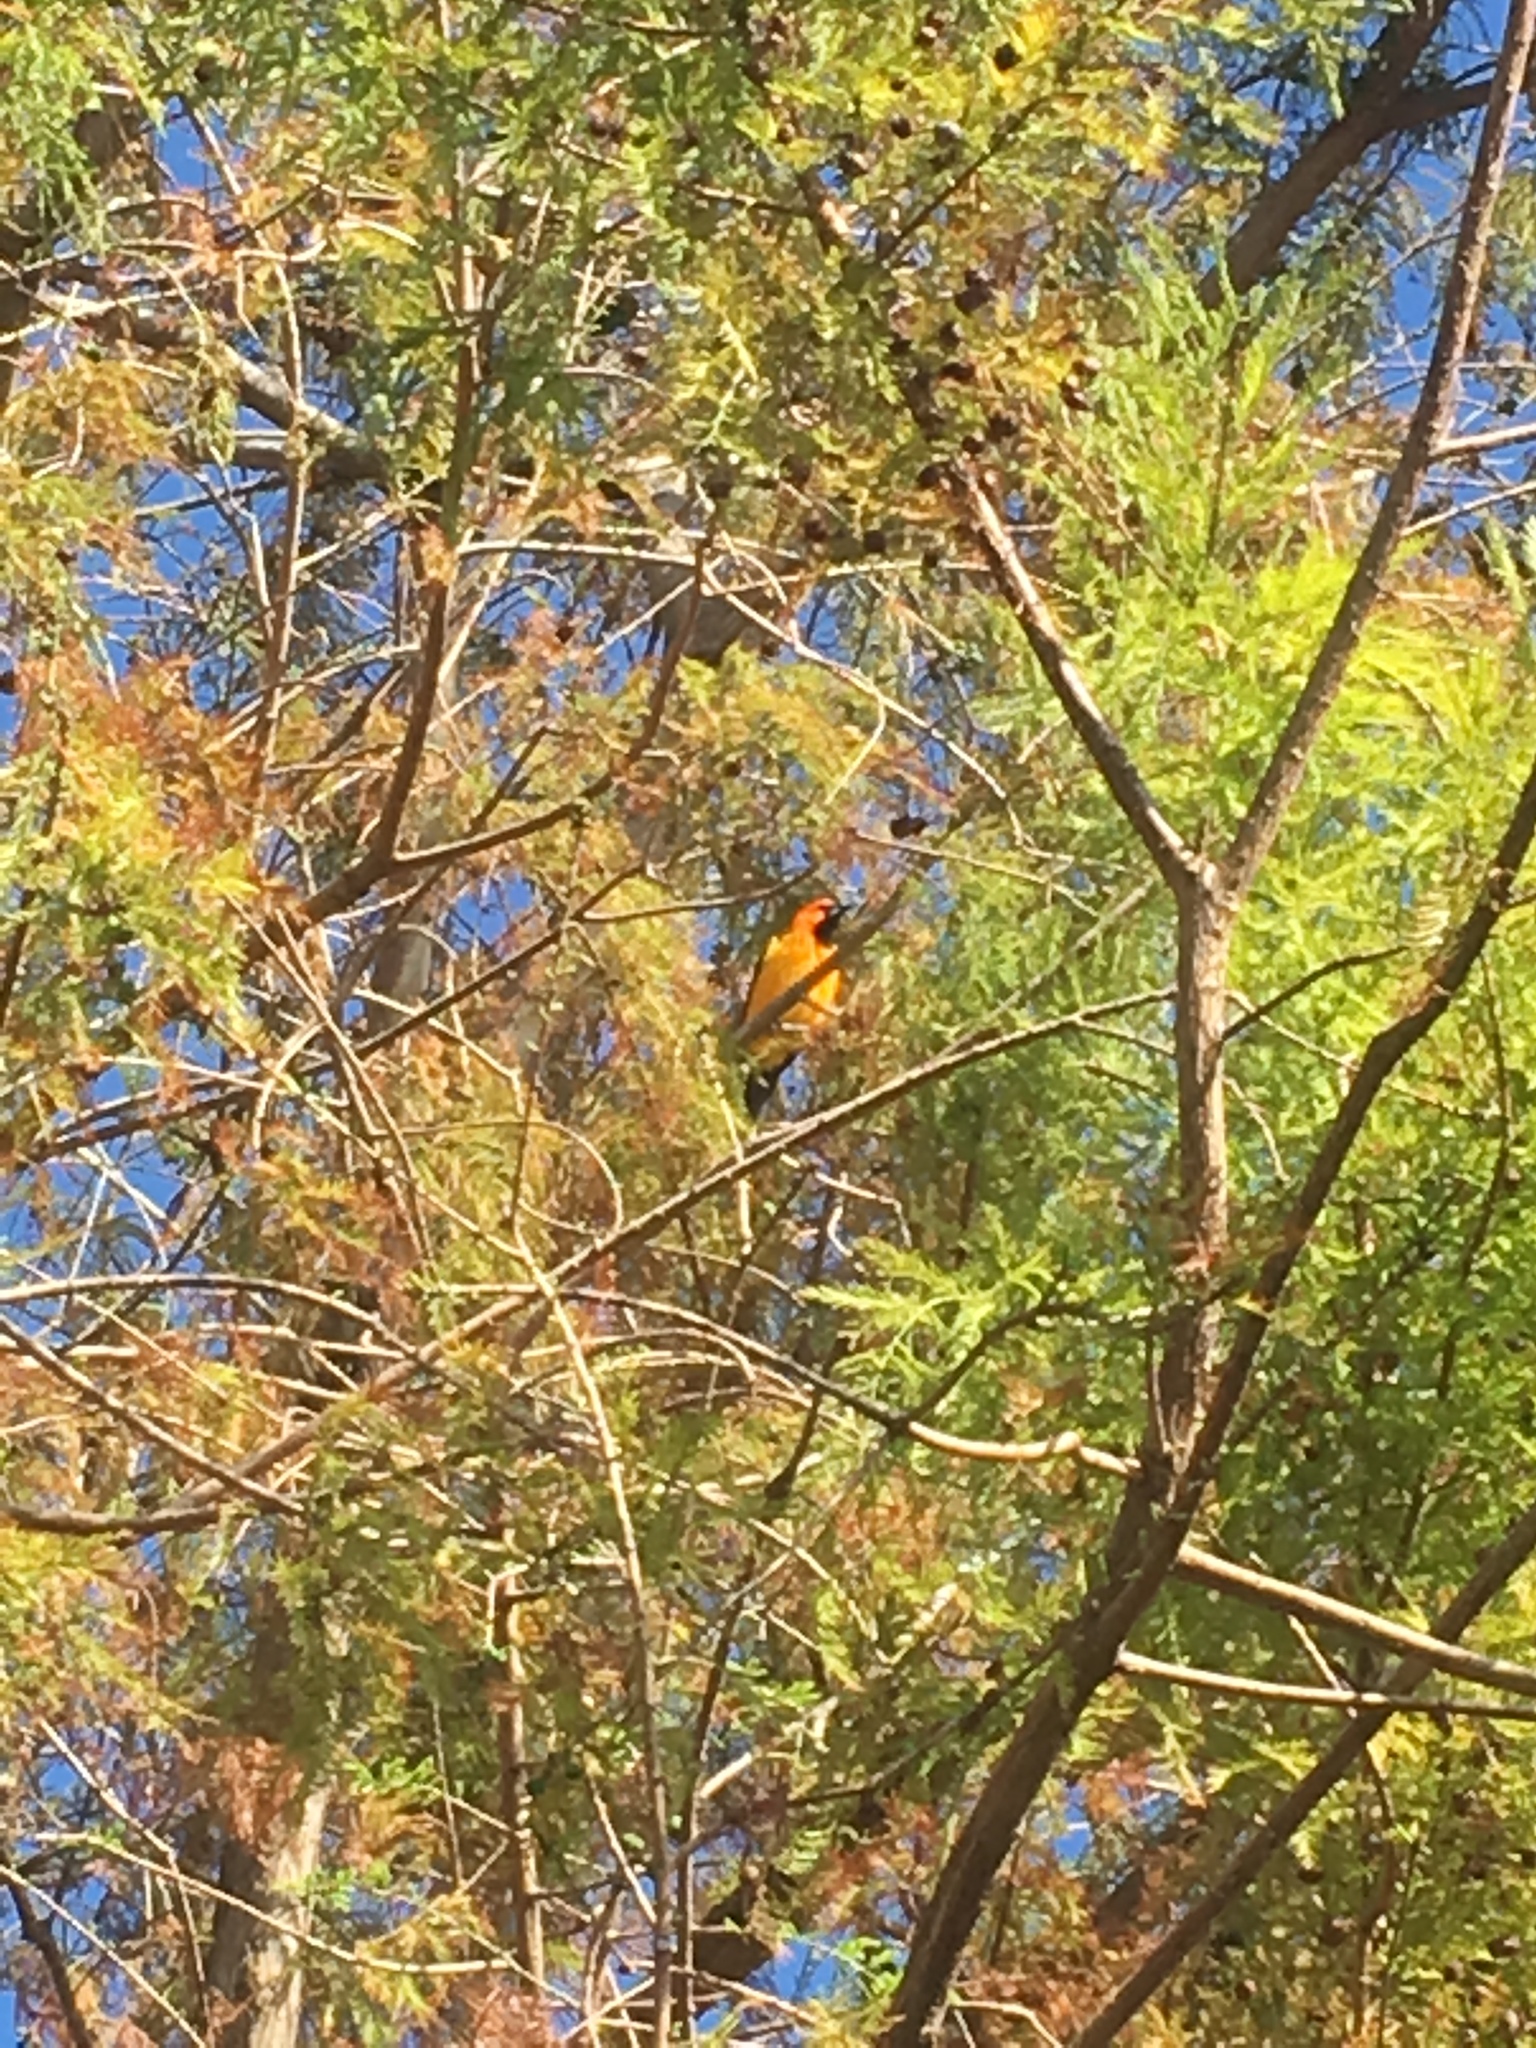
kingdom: Animalia
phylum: Chordata
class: Aves
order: Passeriformes
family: Icteridae
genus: Icterus
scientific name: Icterus pectoralis
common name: Spot-breasted oriole
